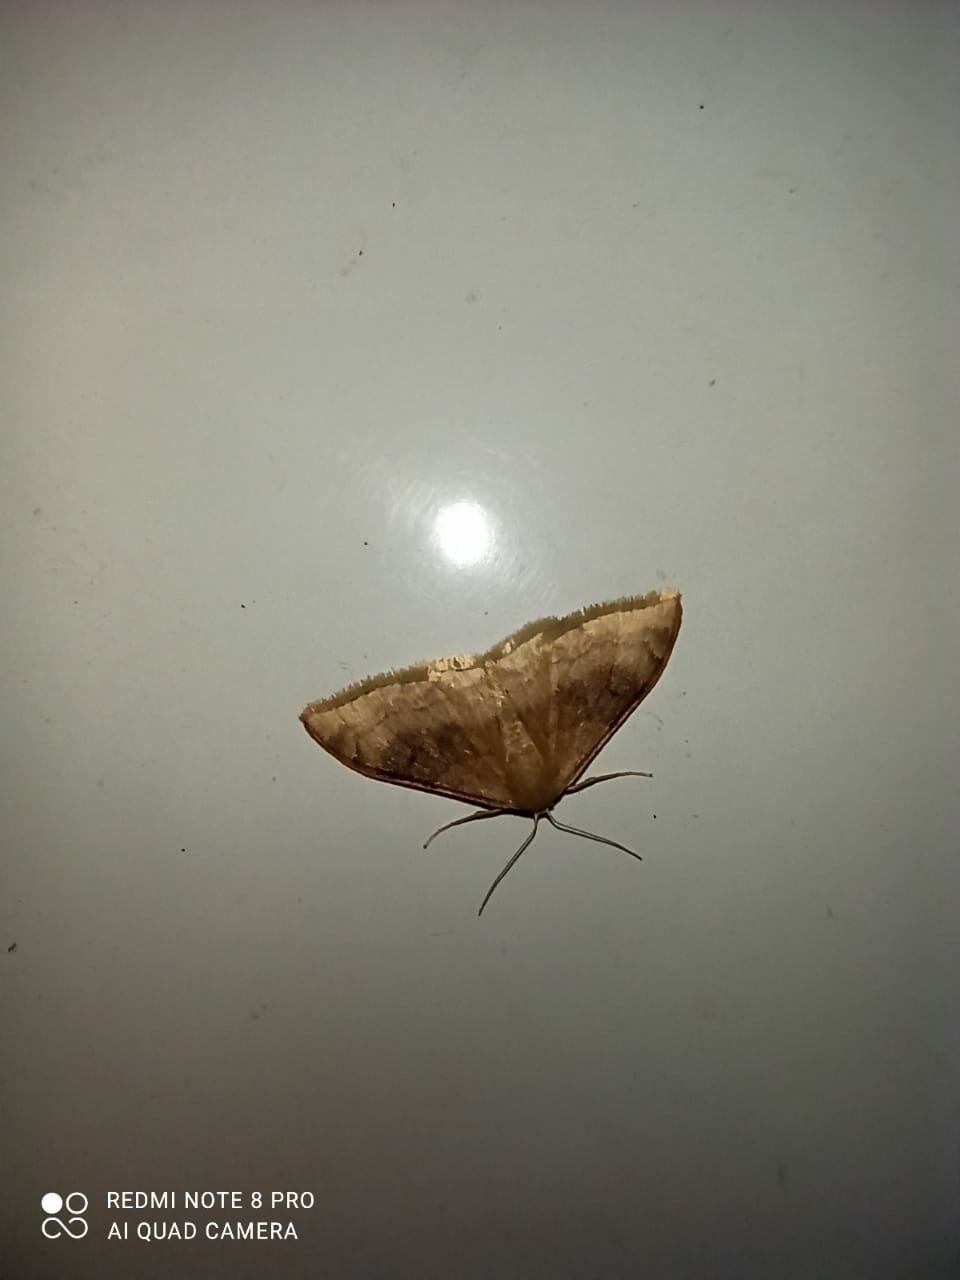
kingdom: Animalia
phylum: Arthropoda
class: Insecta
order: Lepidoptera
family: Geometridae
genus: Idaea
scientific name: Idaea degeneraria
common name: Portland ribbon wave
